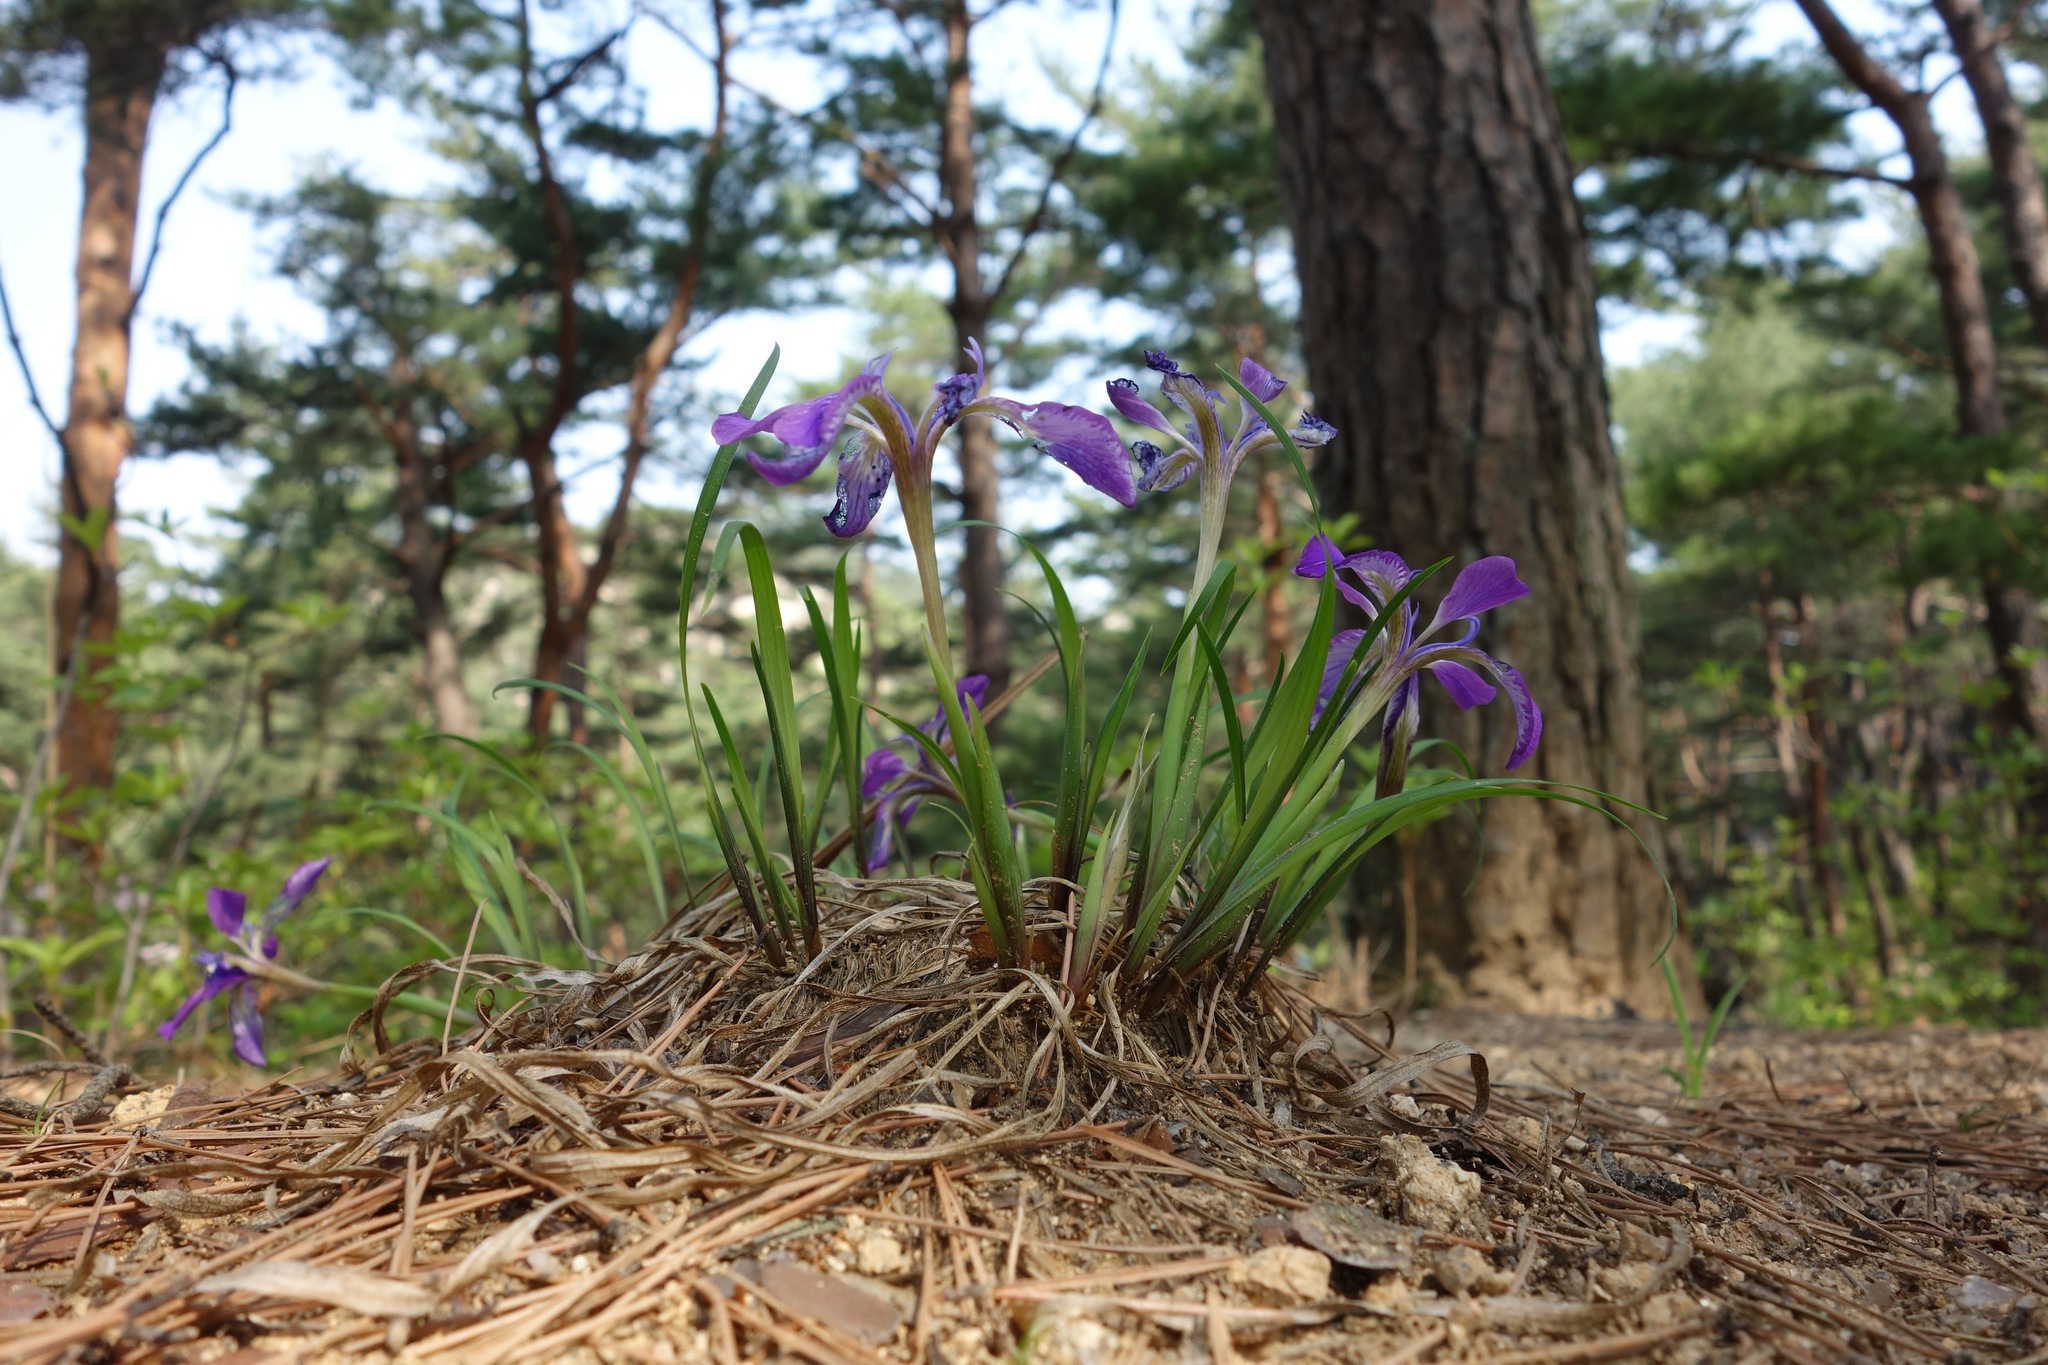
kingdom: Plantae
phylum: Tracheophyta
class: Liliopsida
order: Asparagales
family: Iridaceae
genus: Iris
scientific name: Iris rossii
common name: Long-tail iris
